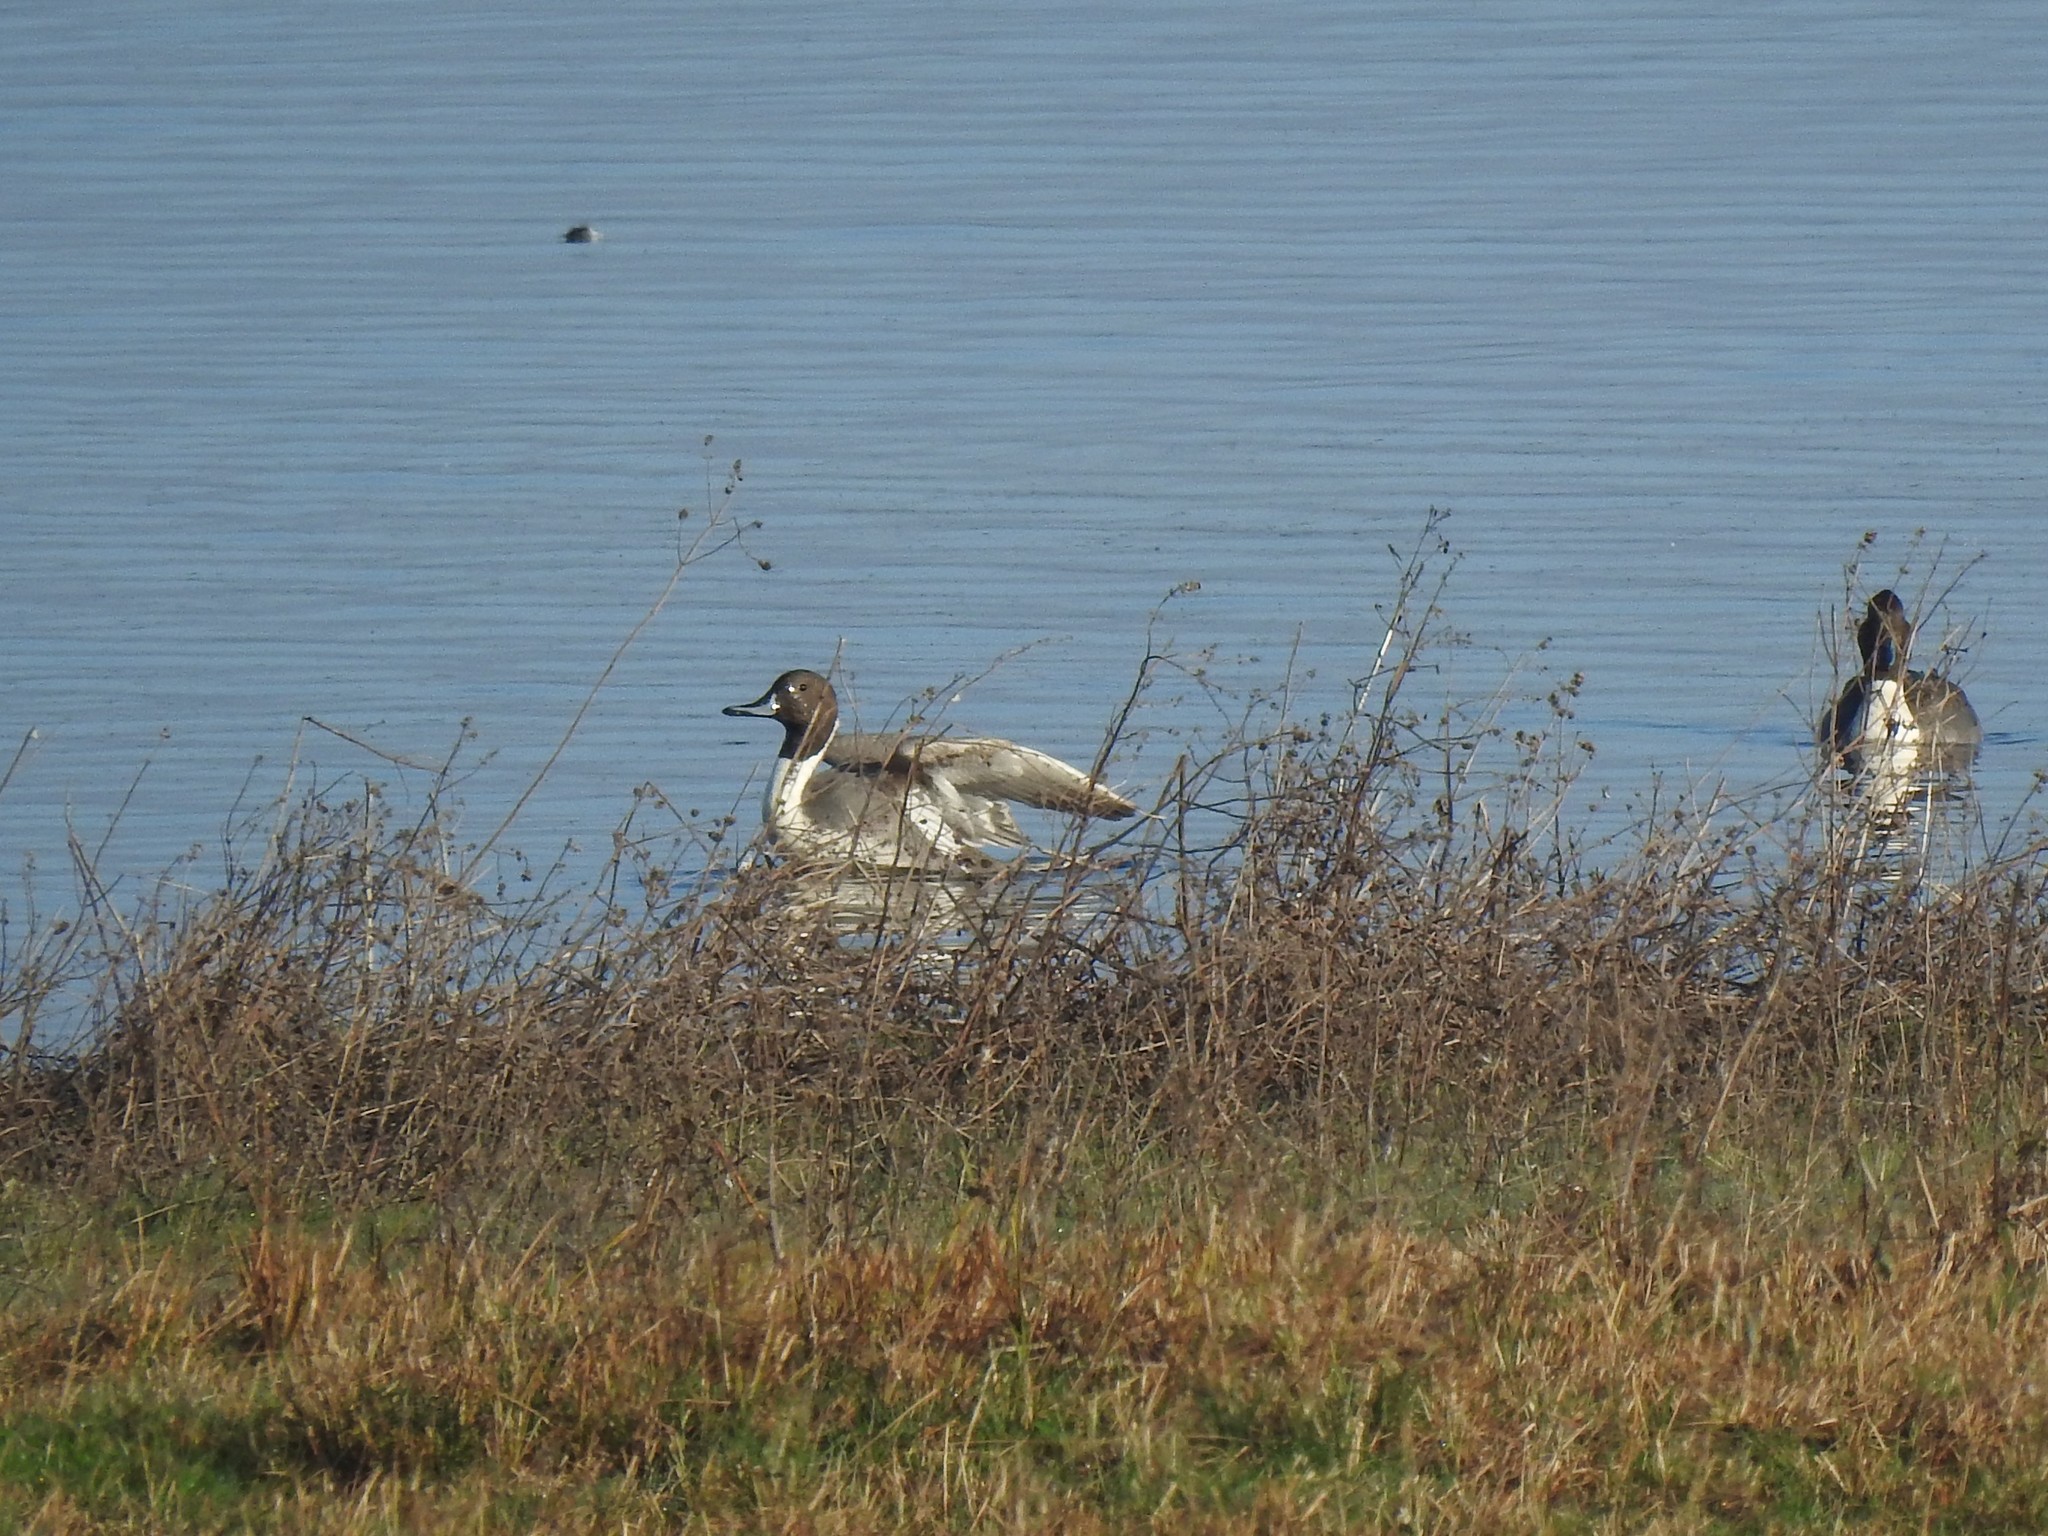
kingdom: Animalia
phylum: Chordata
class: Aves
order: Anseriformes
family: Anatidae
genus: Anas
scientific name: Anas acuta
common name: Northern pintail
